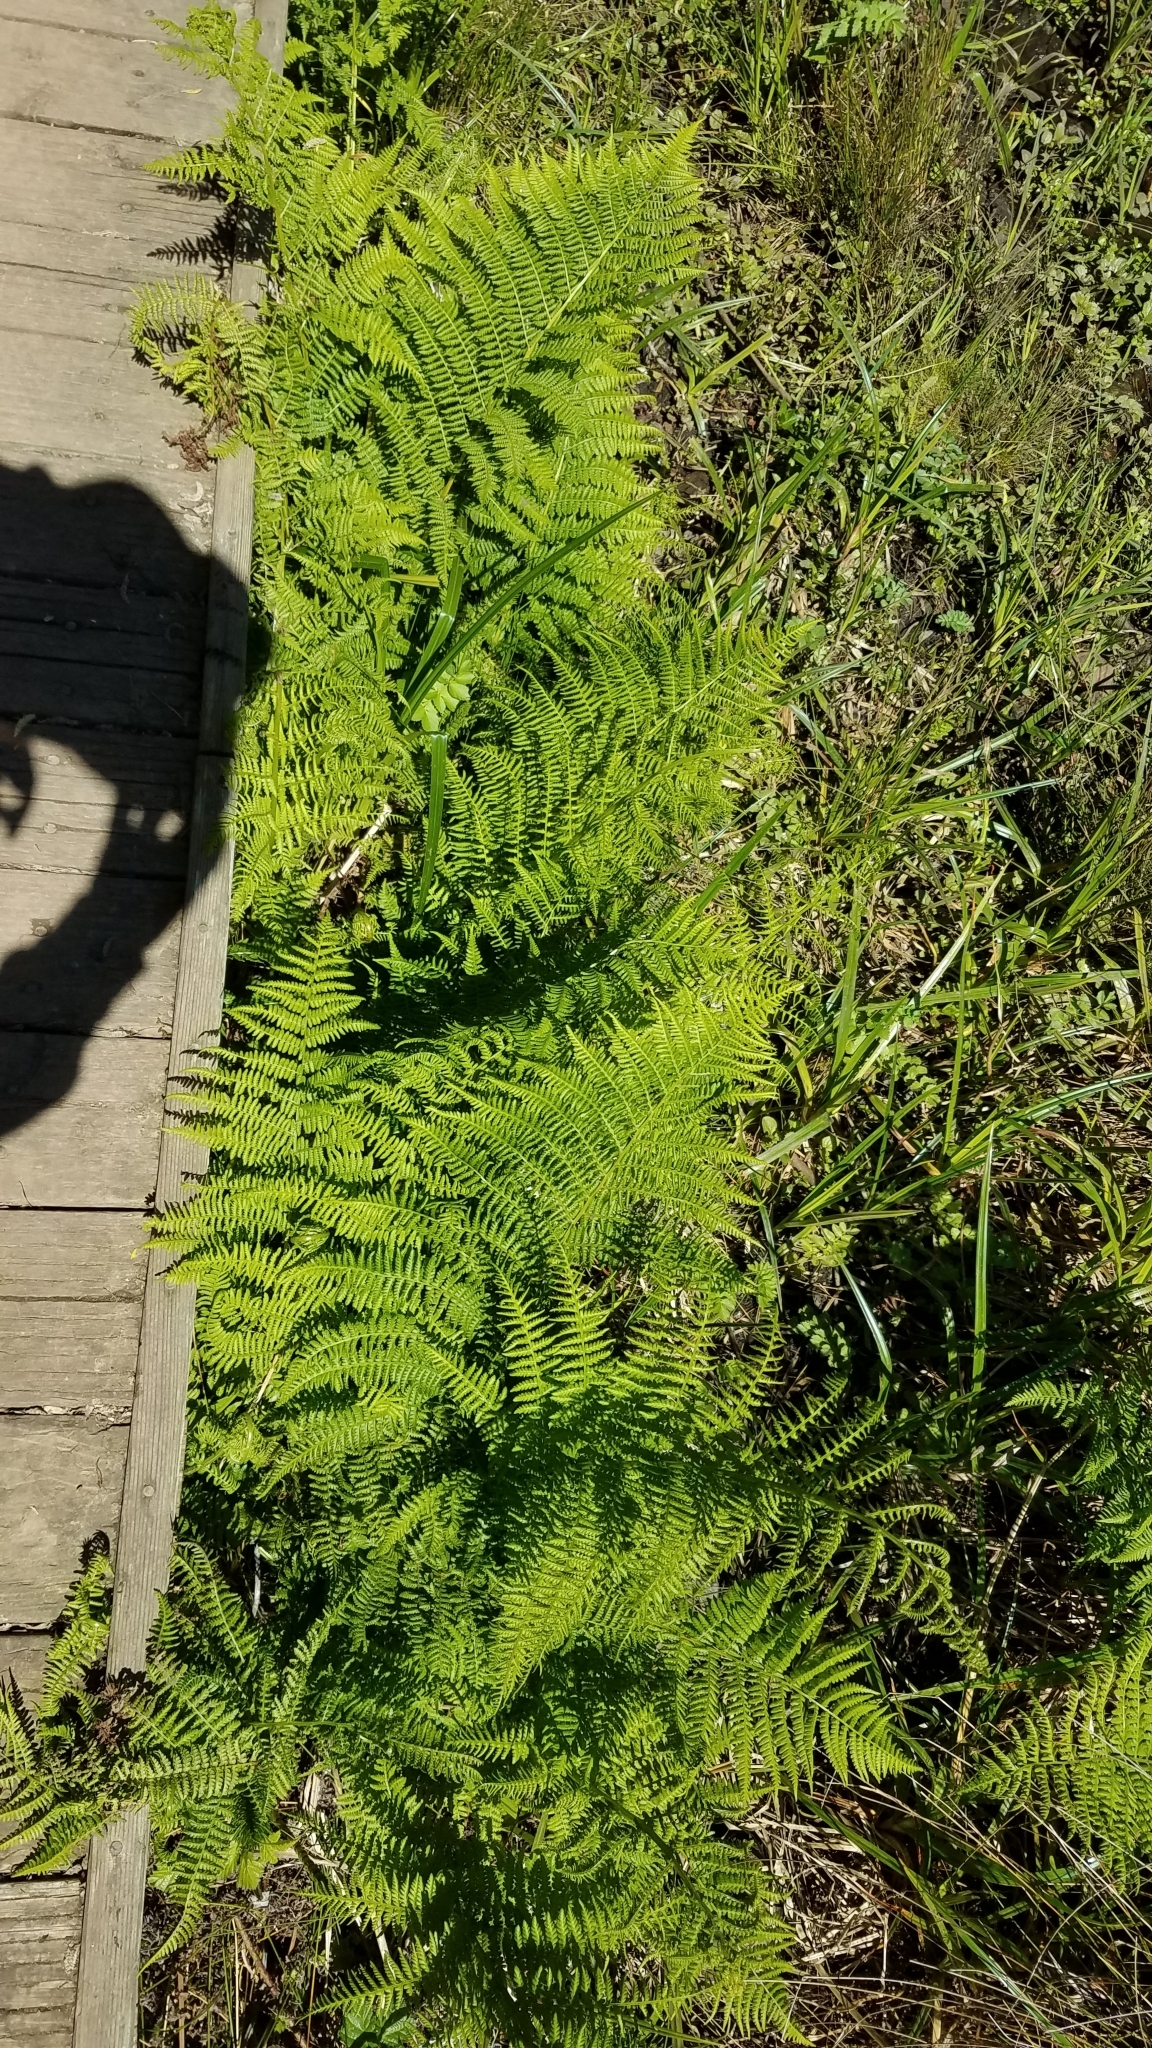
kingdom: Plantae
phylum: Tracheophyta
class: Polypodiopsida
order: Polypodiales
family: Athyriaceae
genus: Athyrium
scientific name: Athyrium cyclosorum
